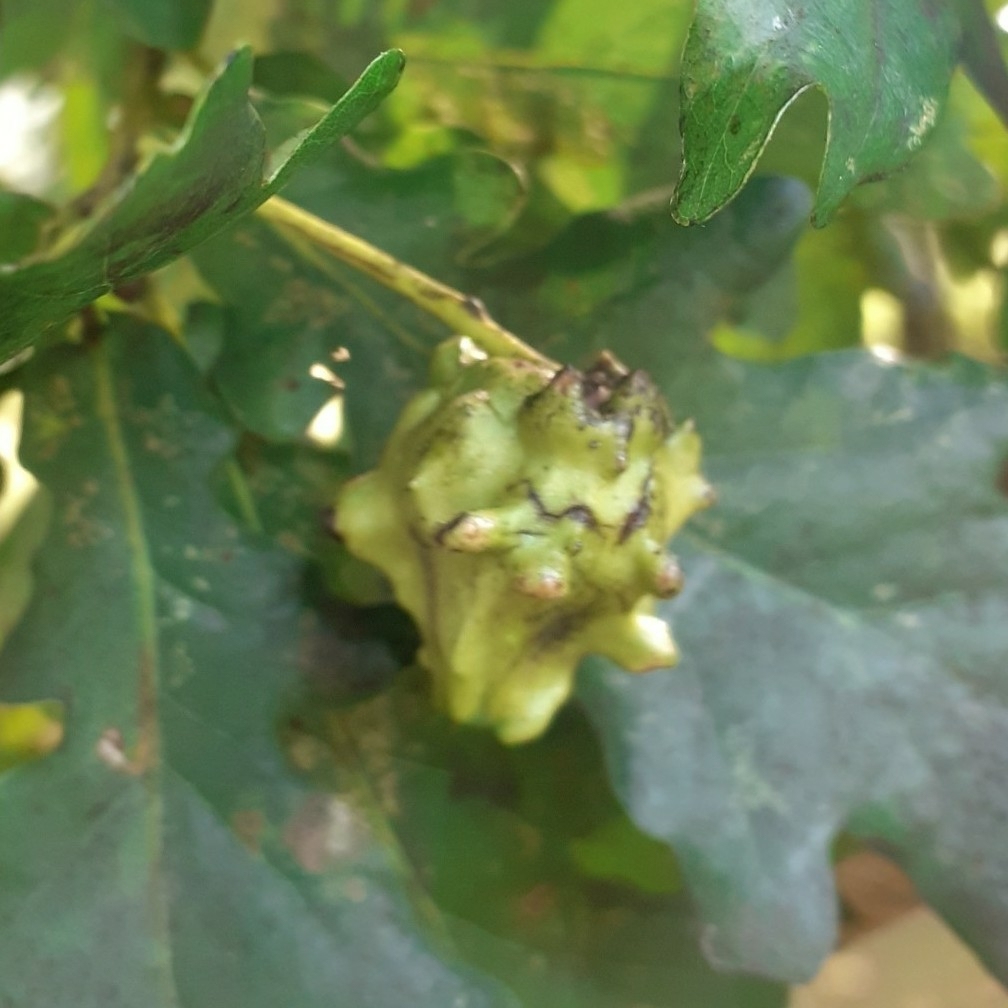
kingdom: Animalia
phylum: Arthropoda
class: Insecta
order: Hymenoptera
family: Cynipidae
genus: Andricus
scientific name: Andricus quercuscalicis
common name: Knopper gall
